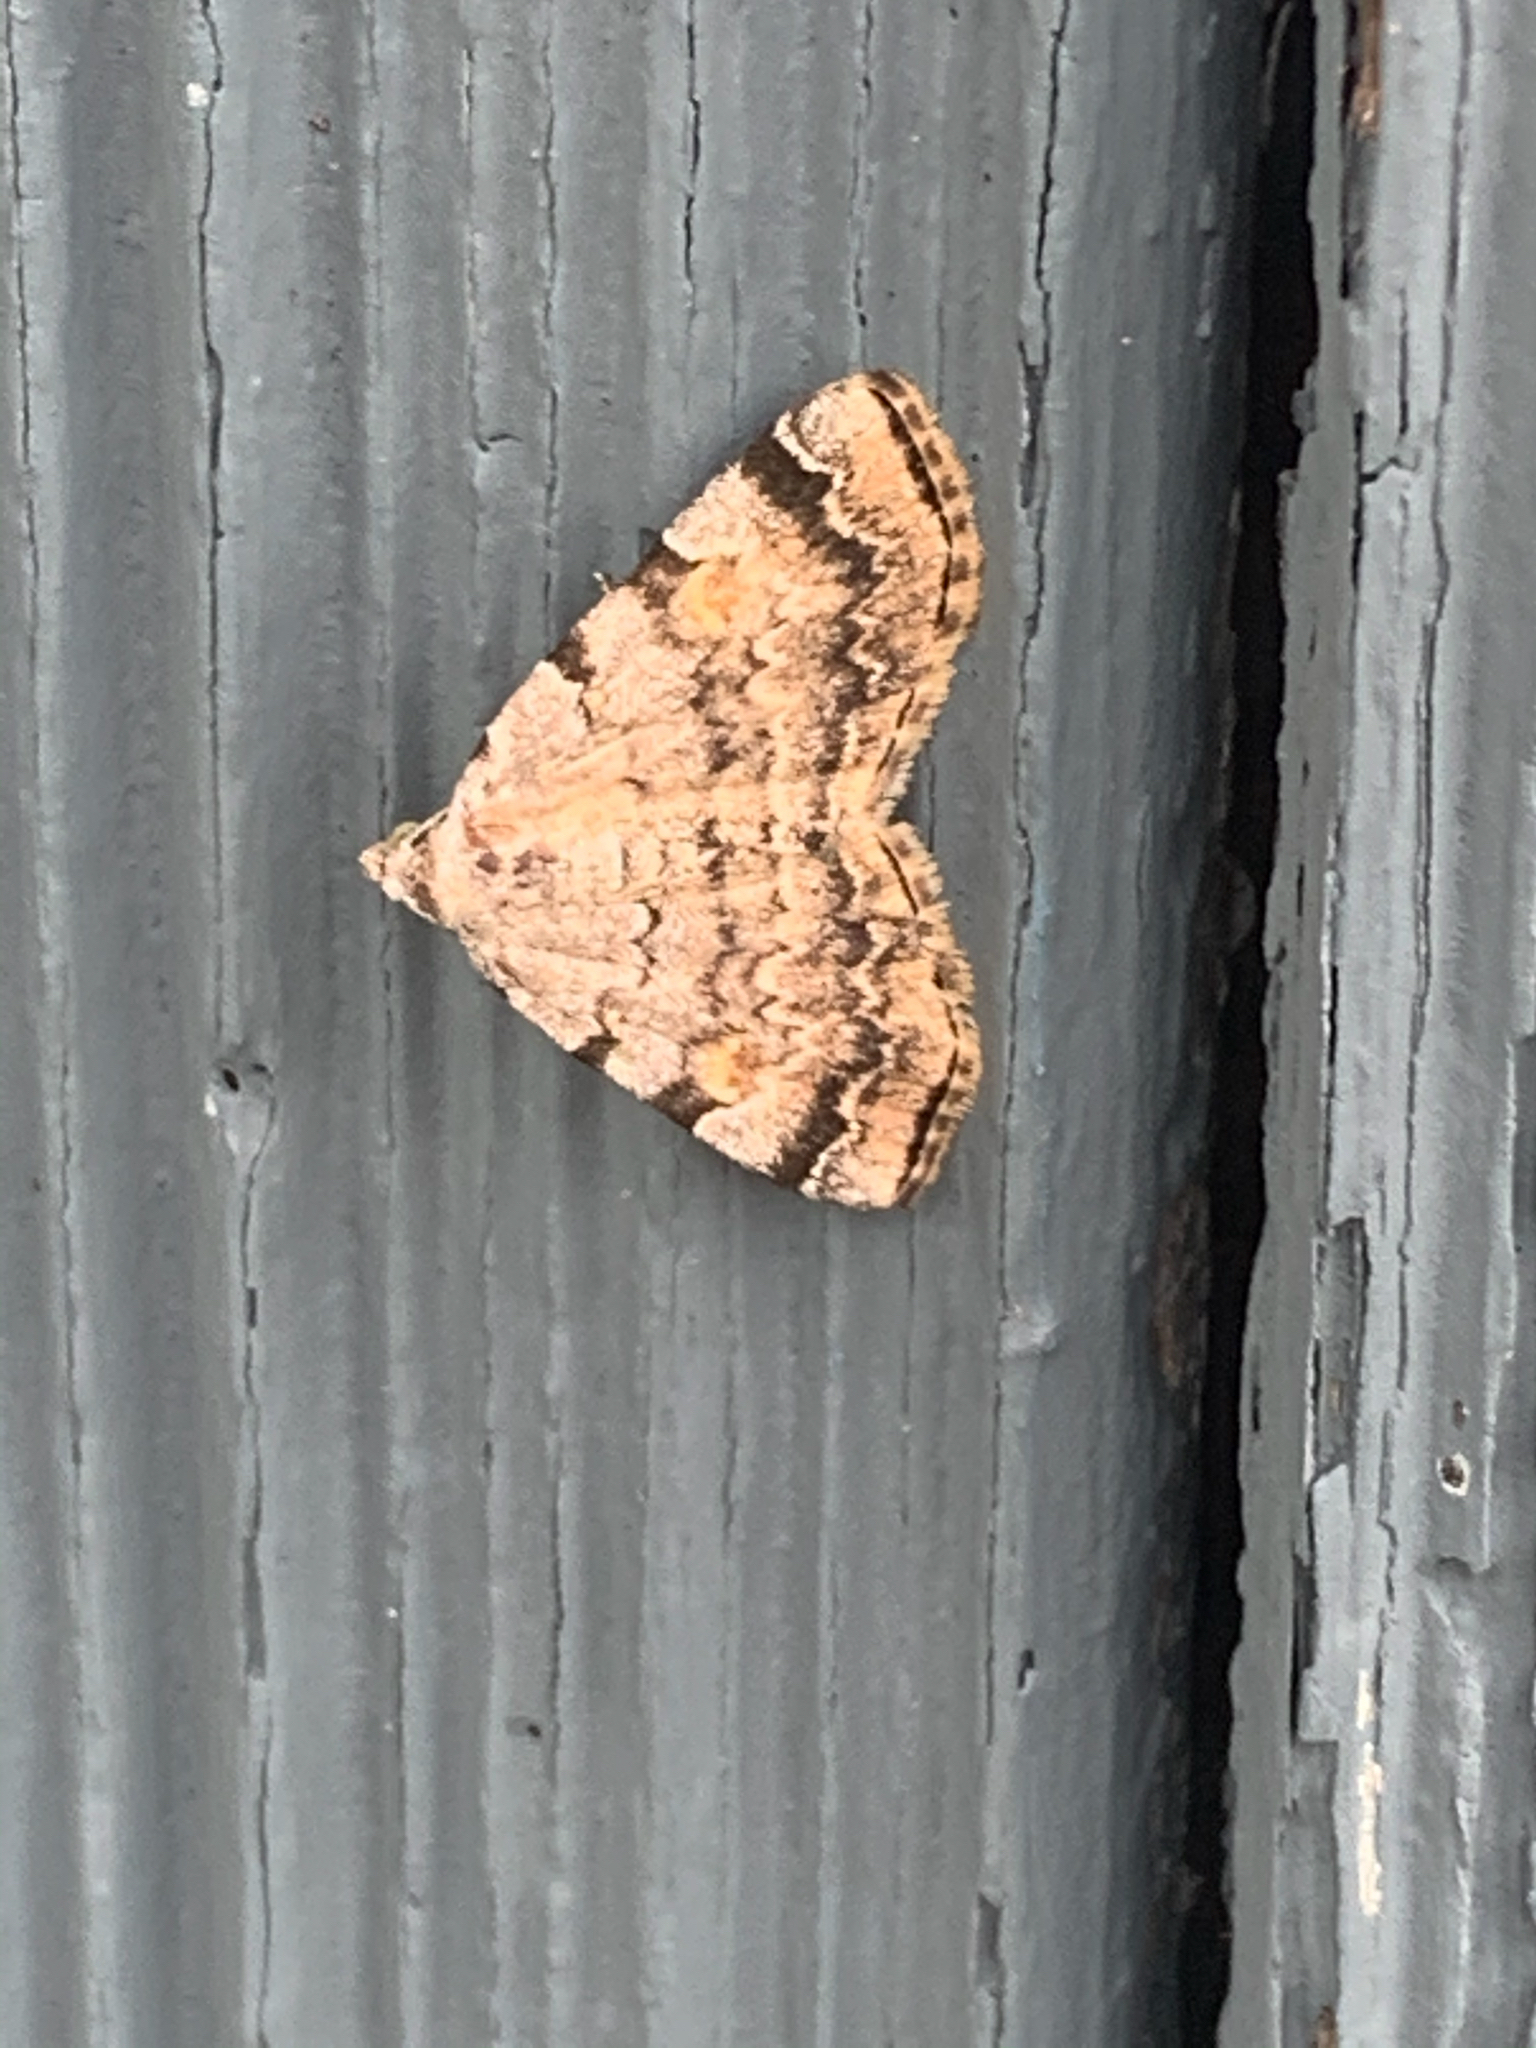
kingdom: Animalia
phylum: Arthropoda
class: Insecta
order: Lepidoptera
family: Erebidae
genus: Idia
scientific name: Idia americalis
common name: American idia moth
